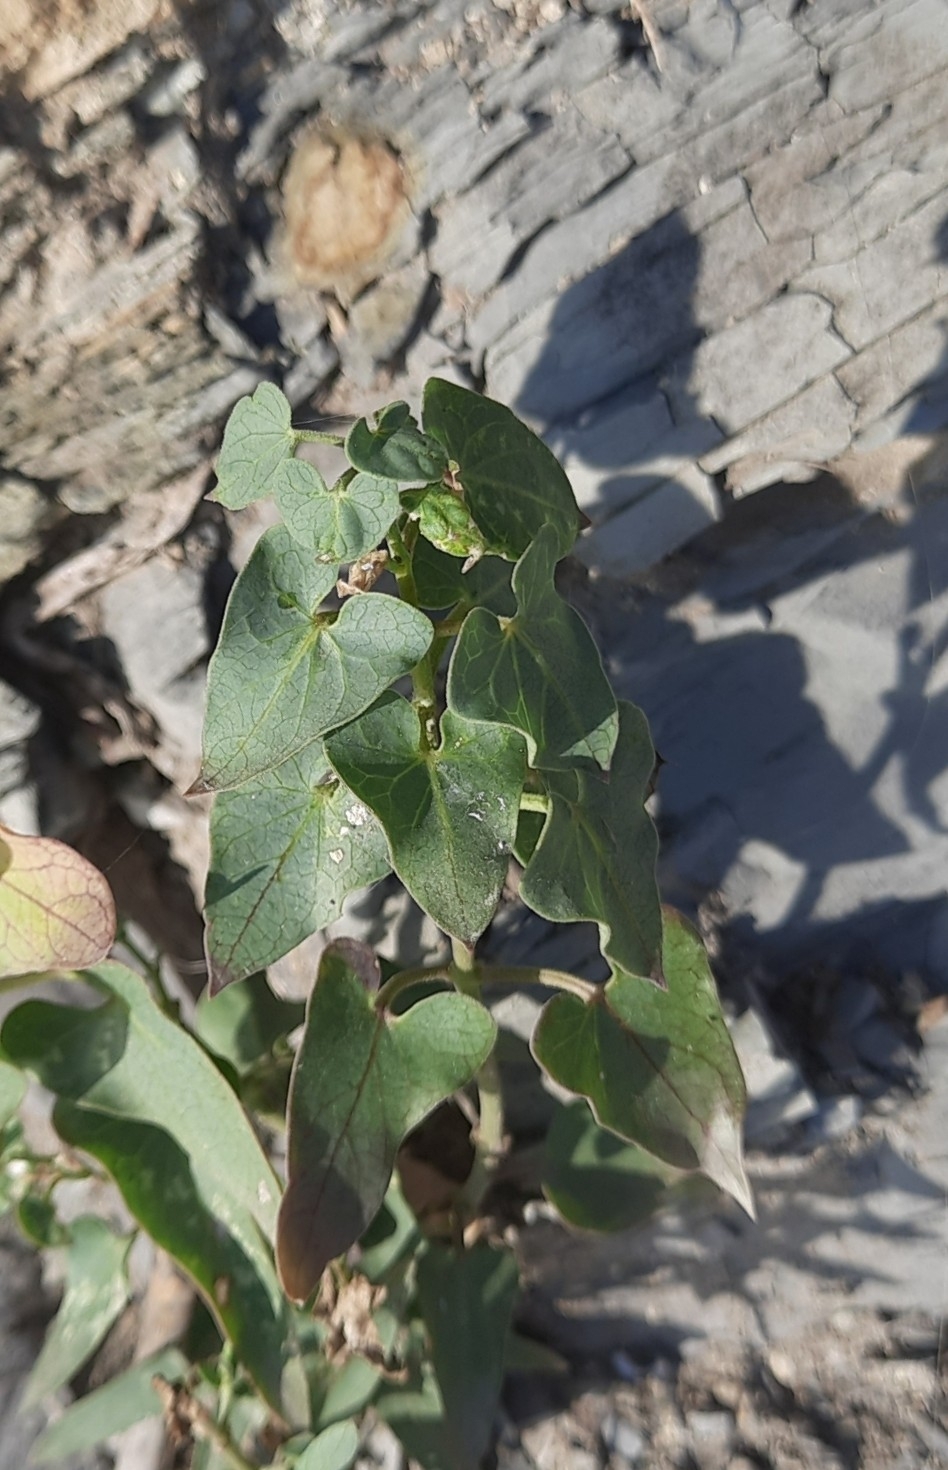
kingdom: Plantae
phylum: Tracheophyta
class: Magnoliopsida
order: Gentianales
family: Apocynaceae
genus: Cynanchum
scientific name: Cynanchum acutum
